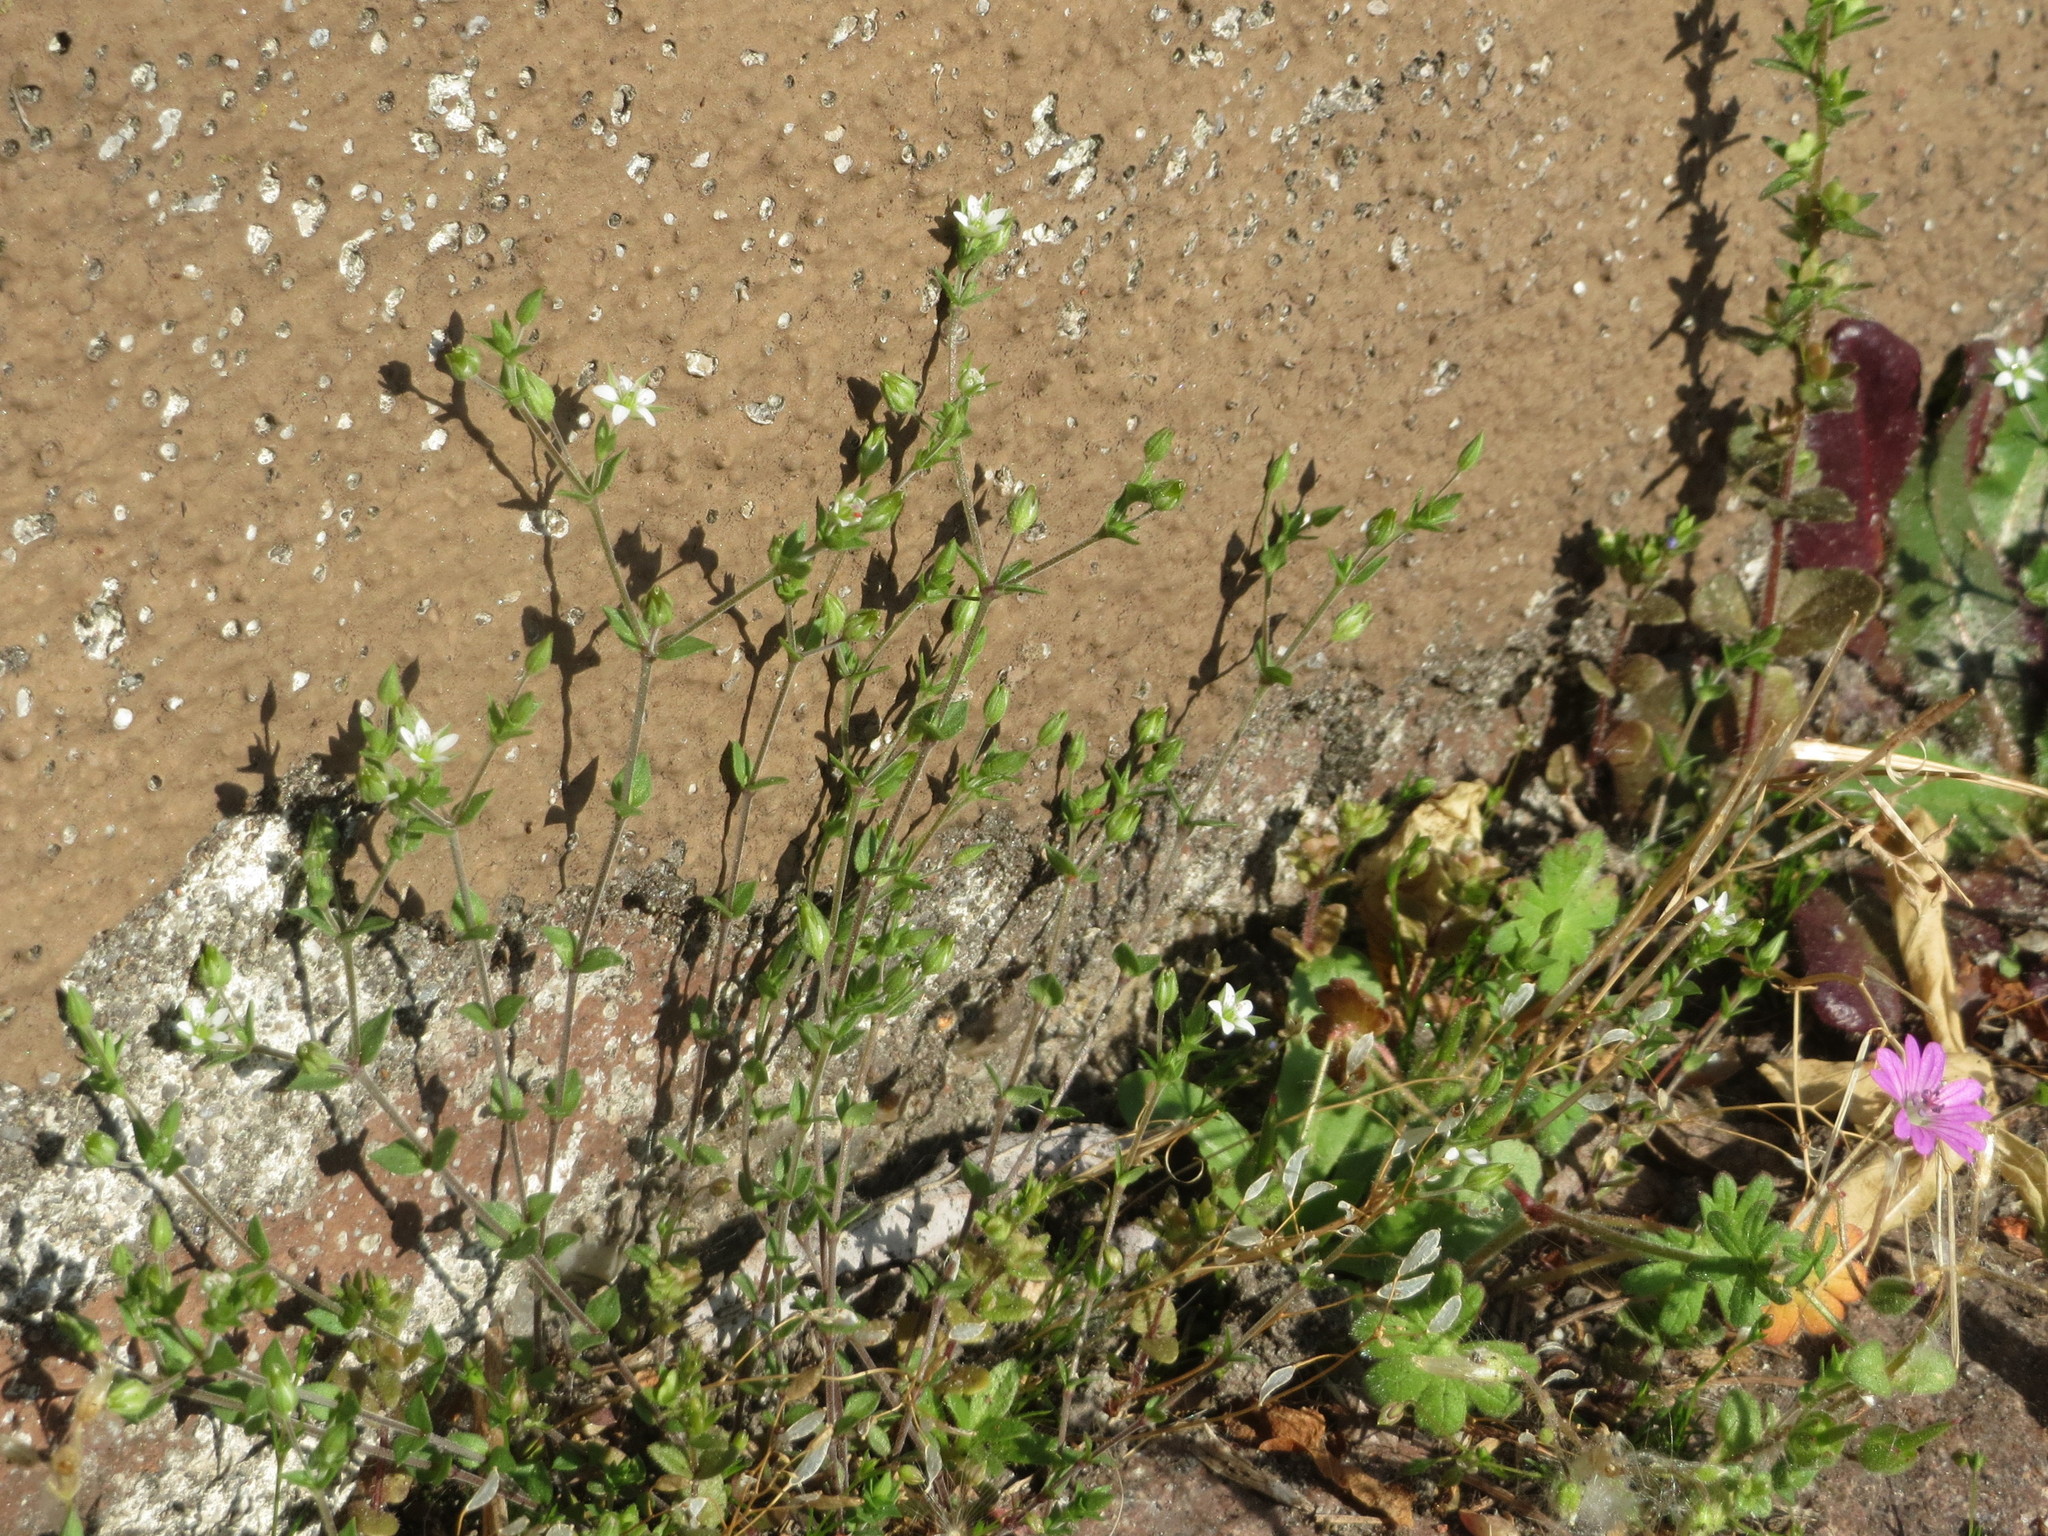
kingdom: Plantae
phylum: Tracheophyta
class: Magnoliopsida
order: Caryophyllales
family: Caryophyllaceae
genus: Arenaria
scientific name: Arenaria serpyllifolia
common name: Thyme-leaved sandwort
